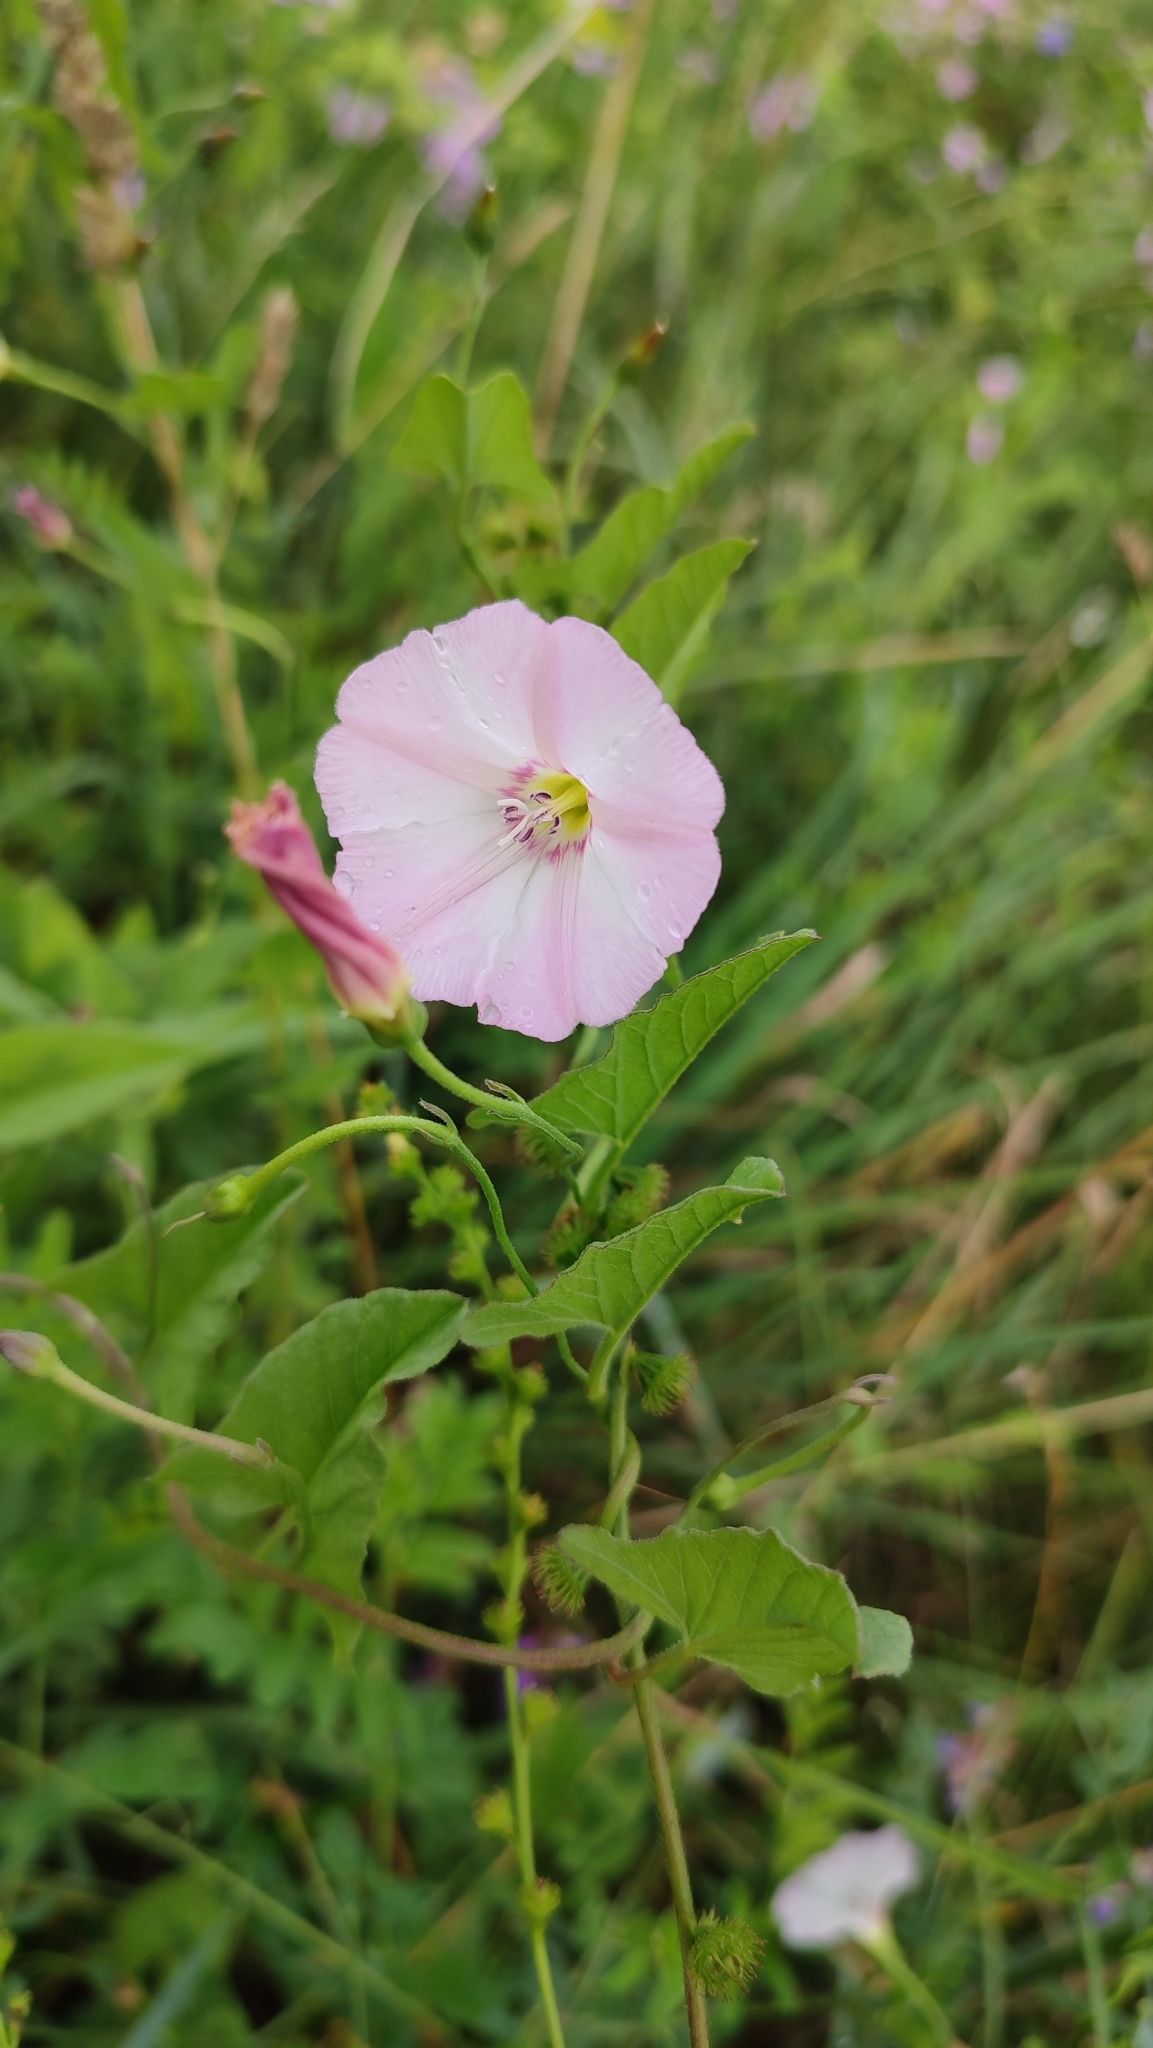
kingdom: Plantae
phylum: Tracheophyta
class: Magnoliopsida
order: Solanales
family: Convolvulaceae
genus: Convolvulus
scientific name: Convolvulus arvensis
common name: Field bindweed
